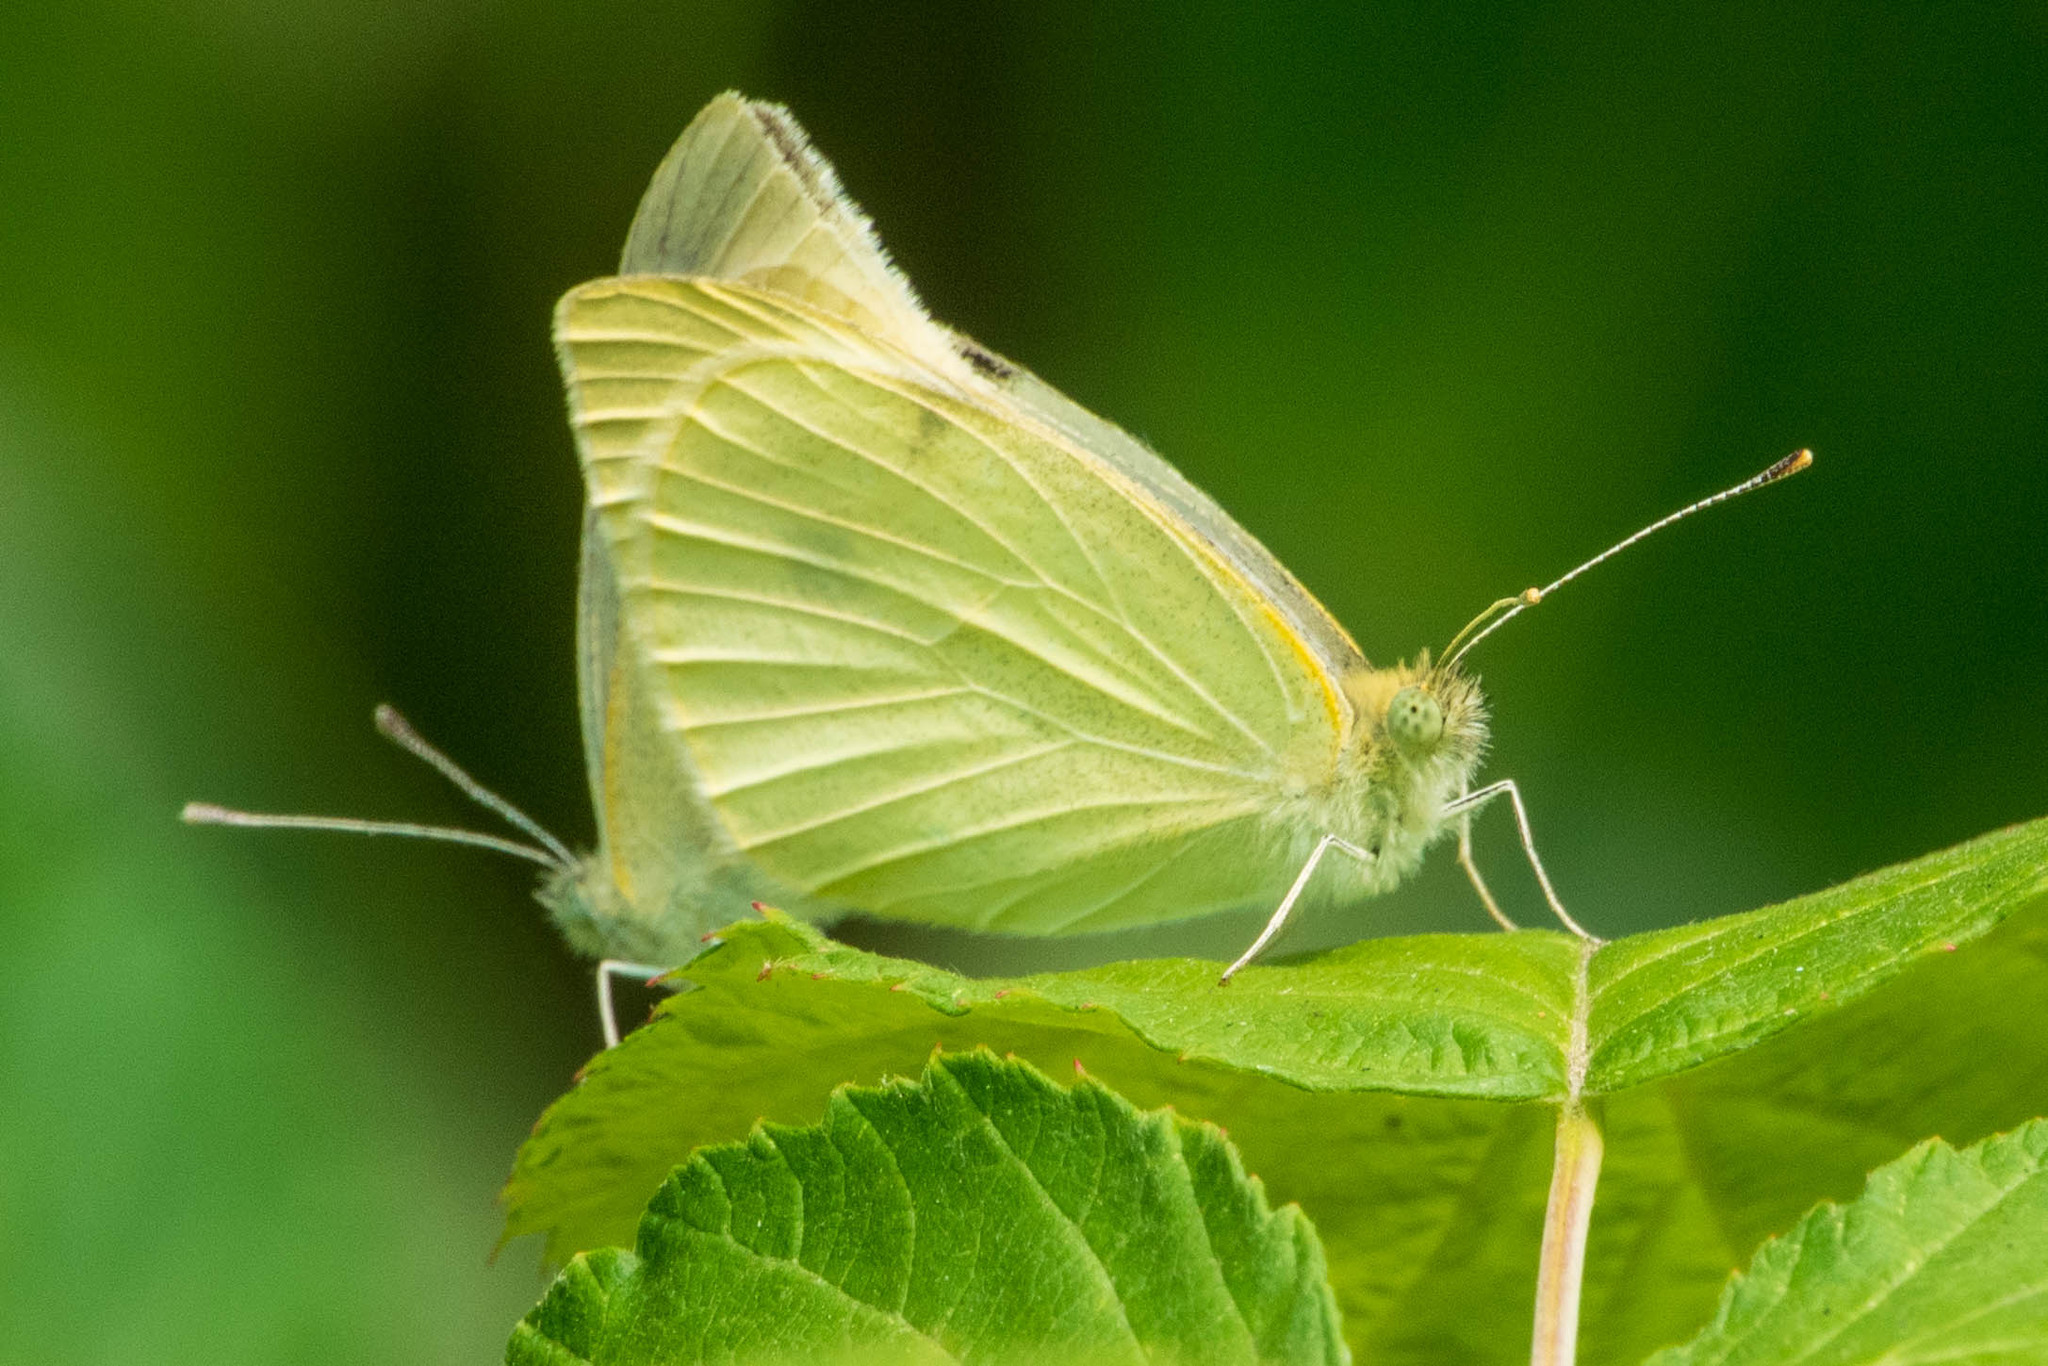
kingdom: Animalia
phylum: Arthropoda
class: Insecta
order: Lepidoptera
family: Pieridae
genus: Pieris
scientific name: Pieris rapae
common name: Small white
